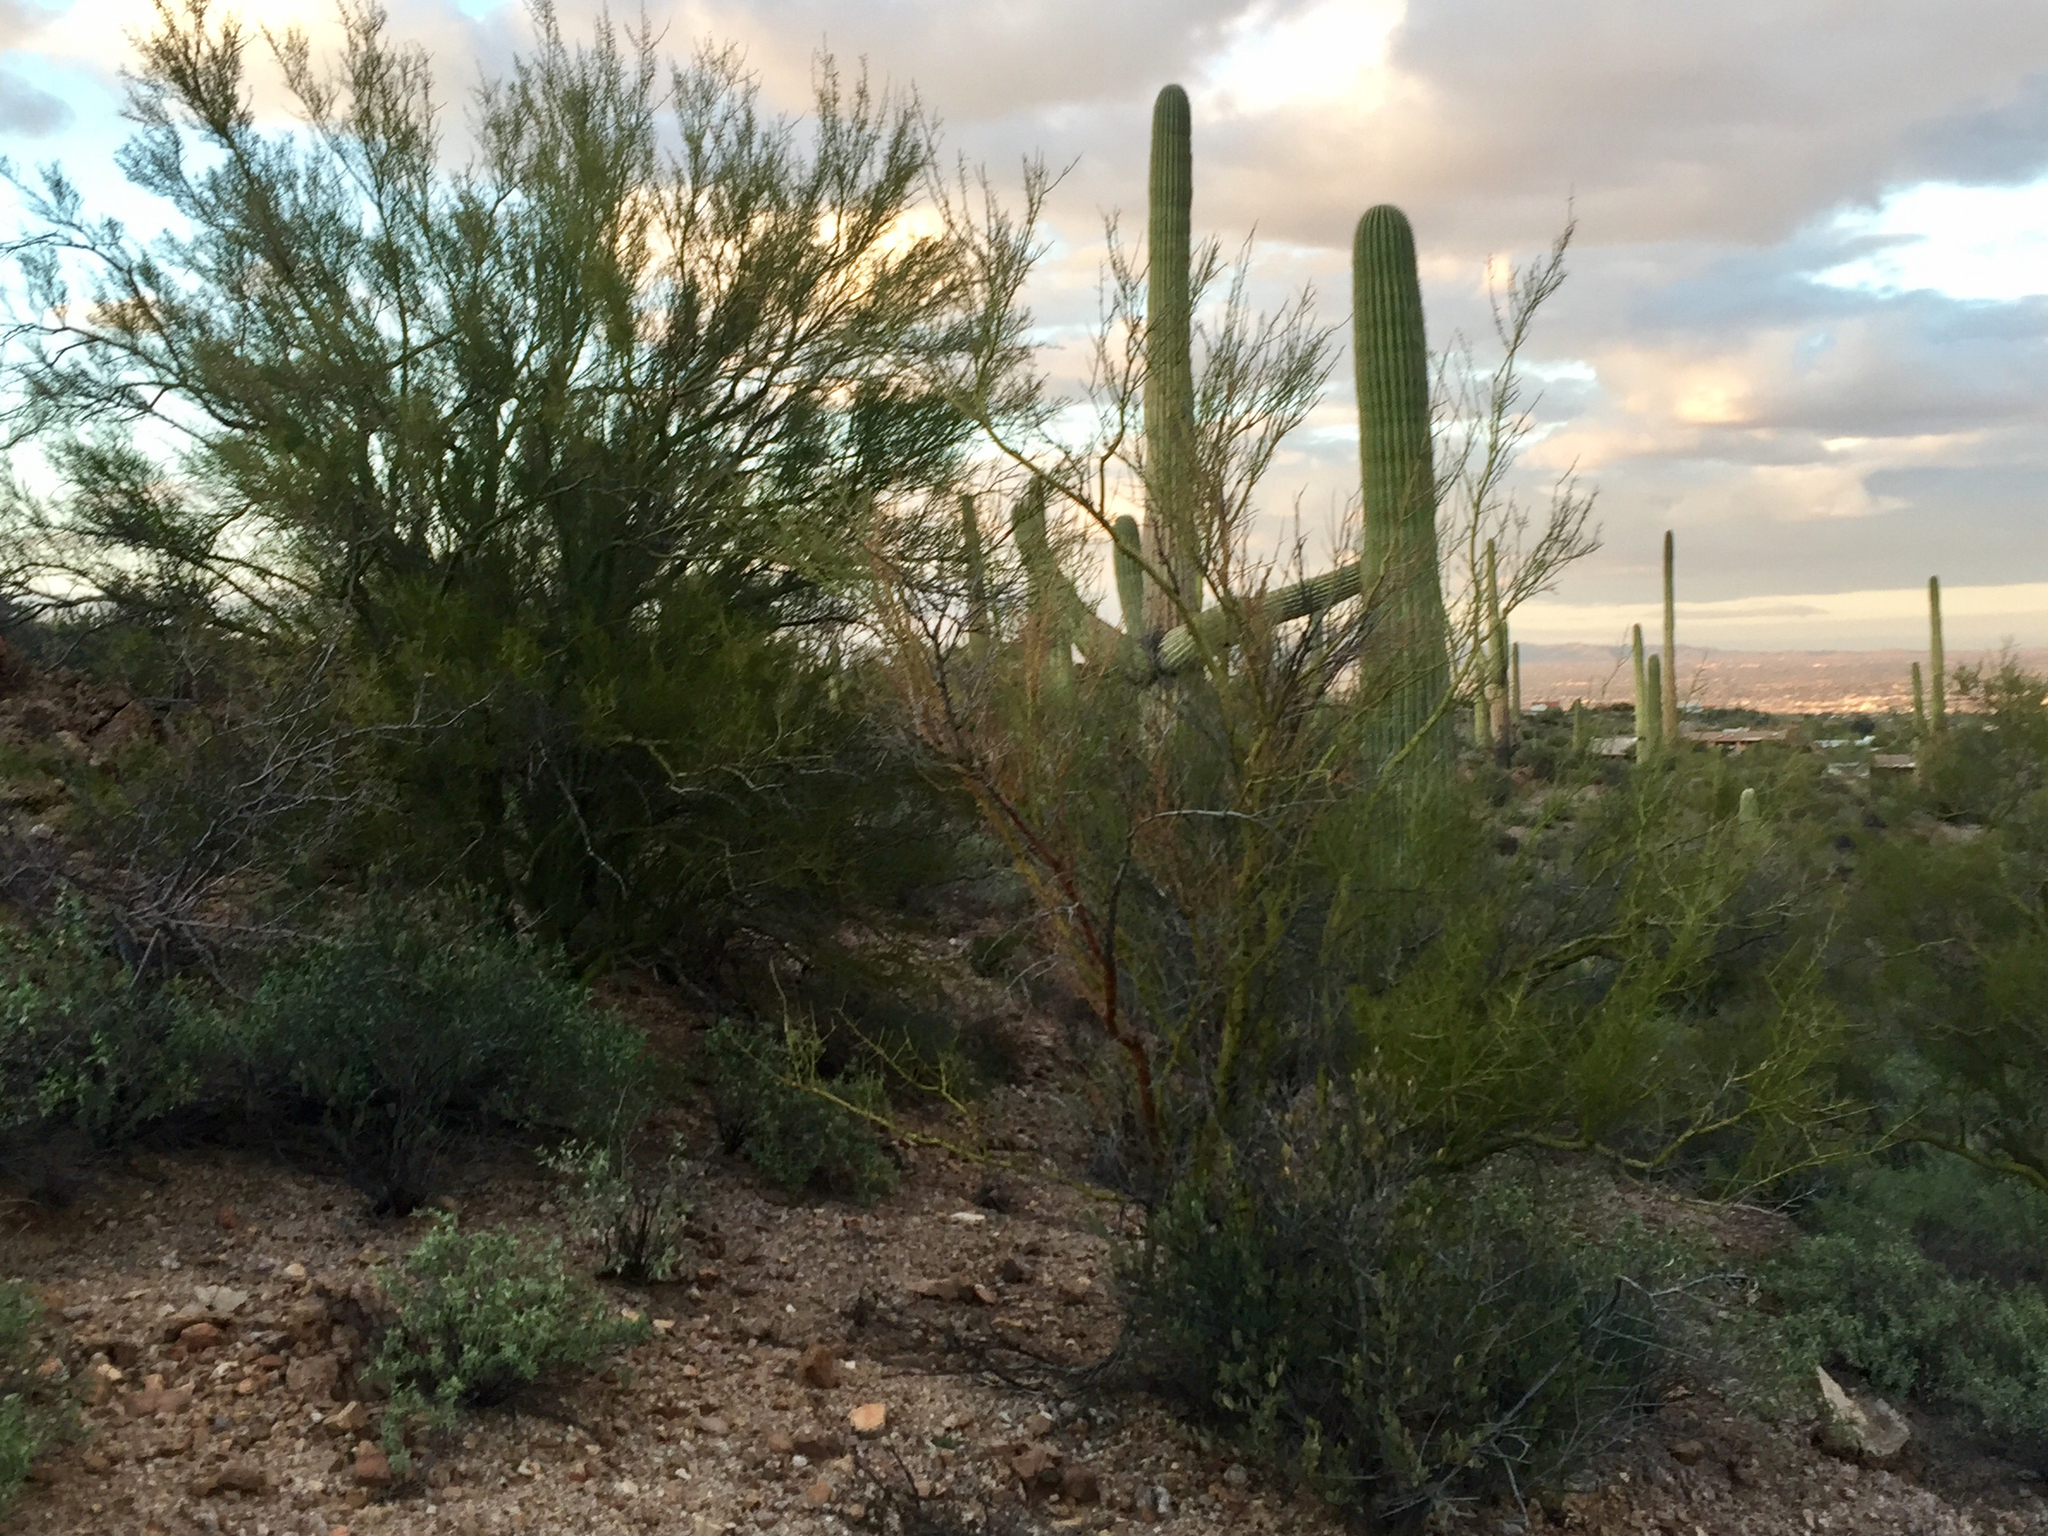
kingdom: Plantae
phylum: Tracheophyta
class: Magnoliopsida
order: Fabales
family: Fabaceae
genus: Parkinsonia
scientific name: Parkinsonia microphylla
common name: Yellow paloverde
